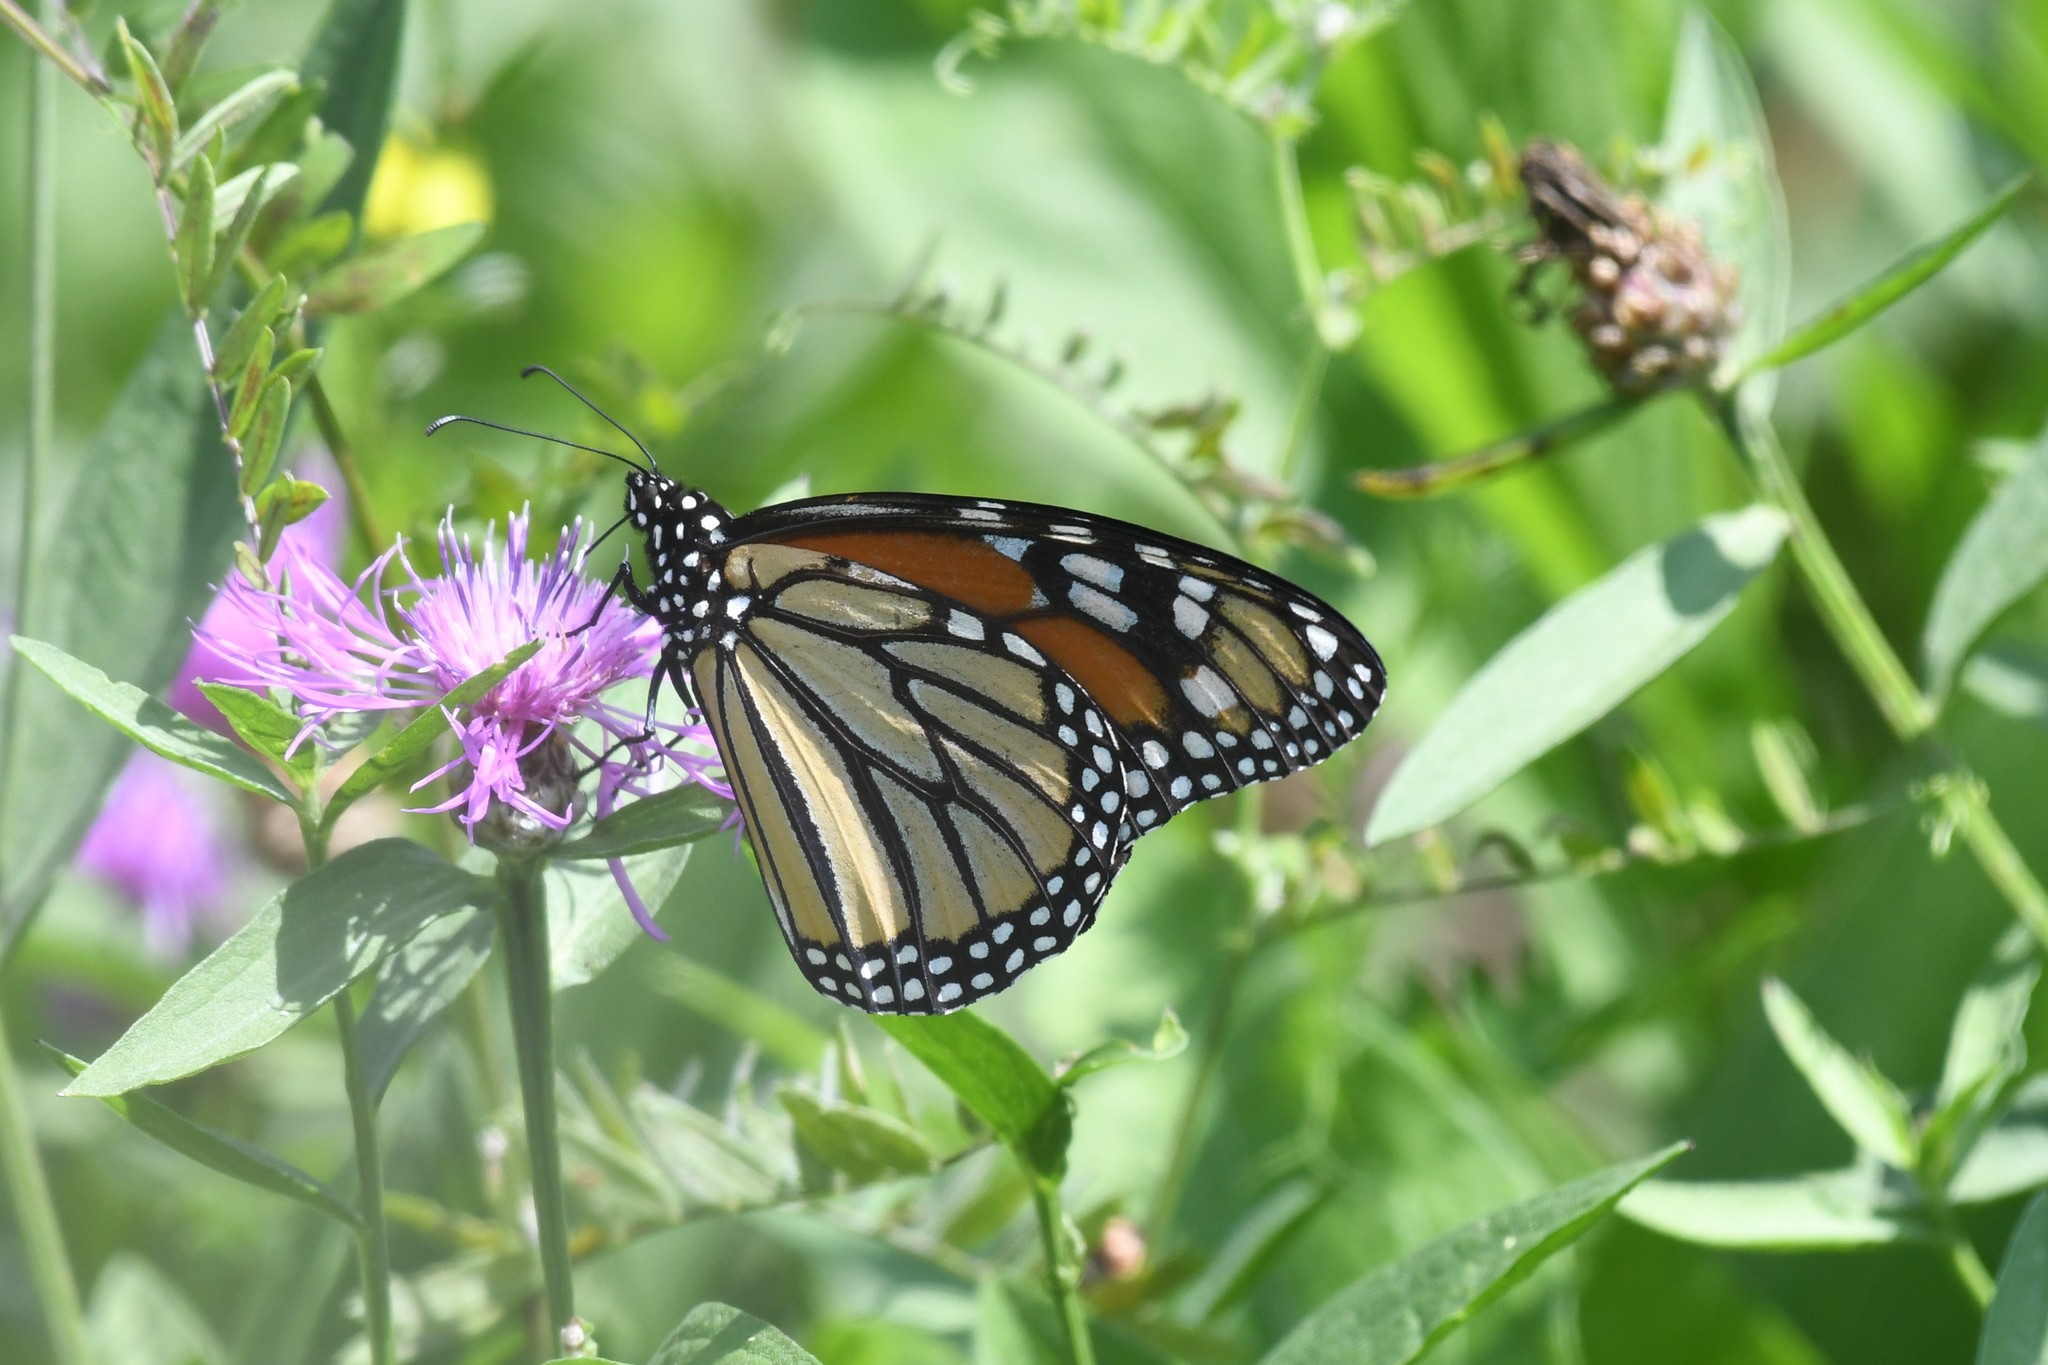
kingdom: Animalia
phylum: Arthropoda
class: Insecta
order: Lepidoptera
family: Nymphalidae
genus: Danaus
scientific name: Danaus plexippus
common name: Monarch
